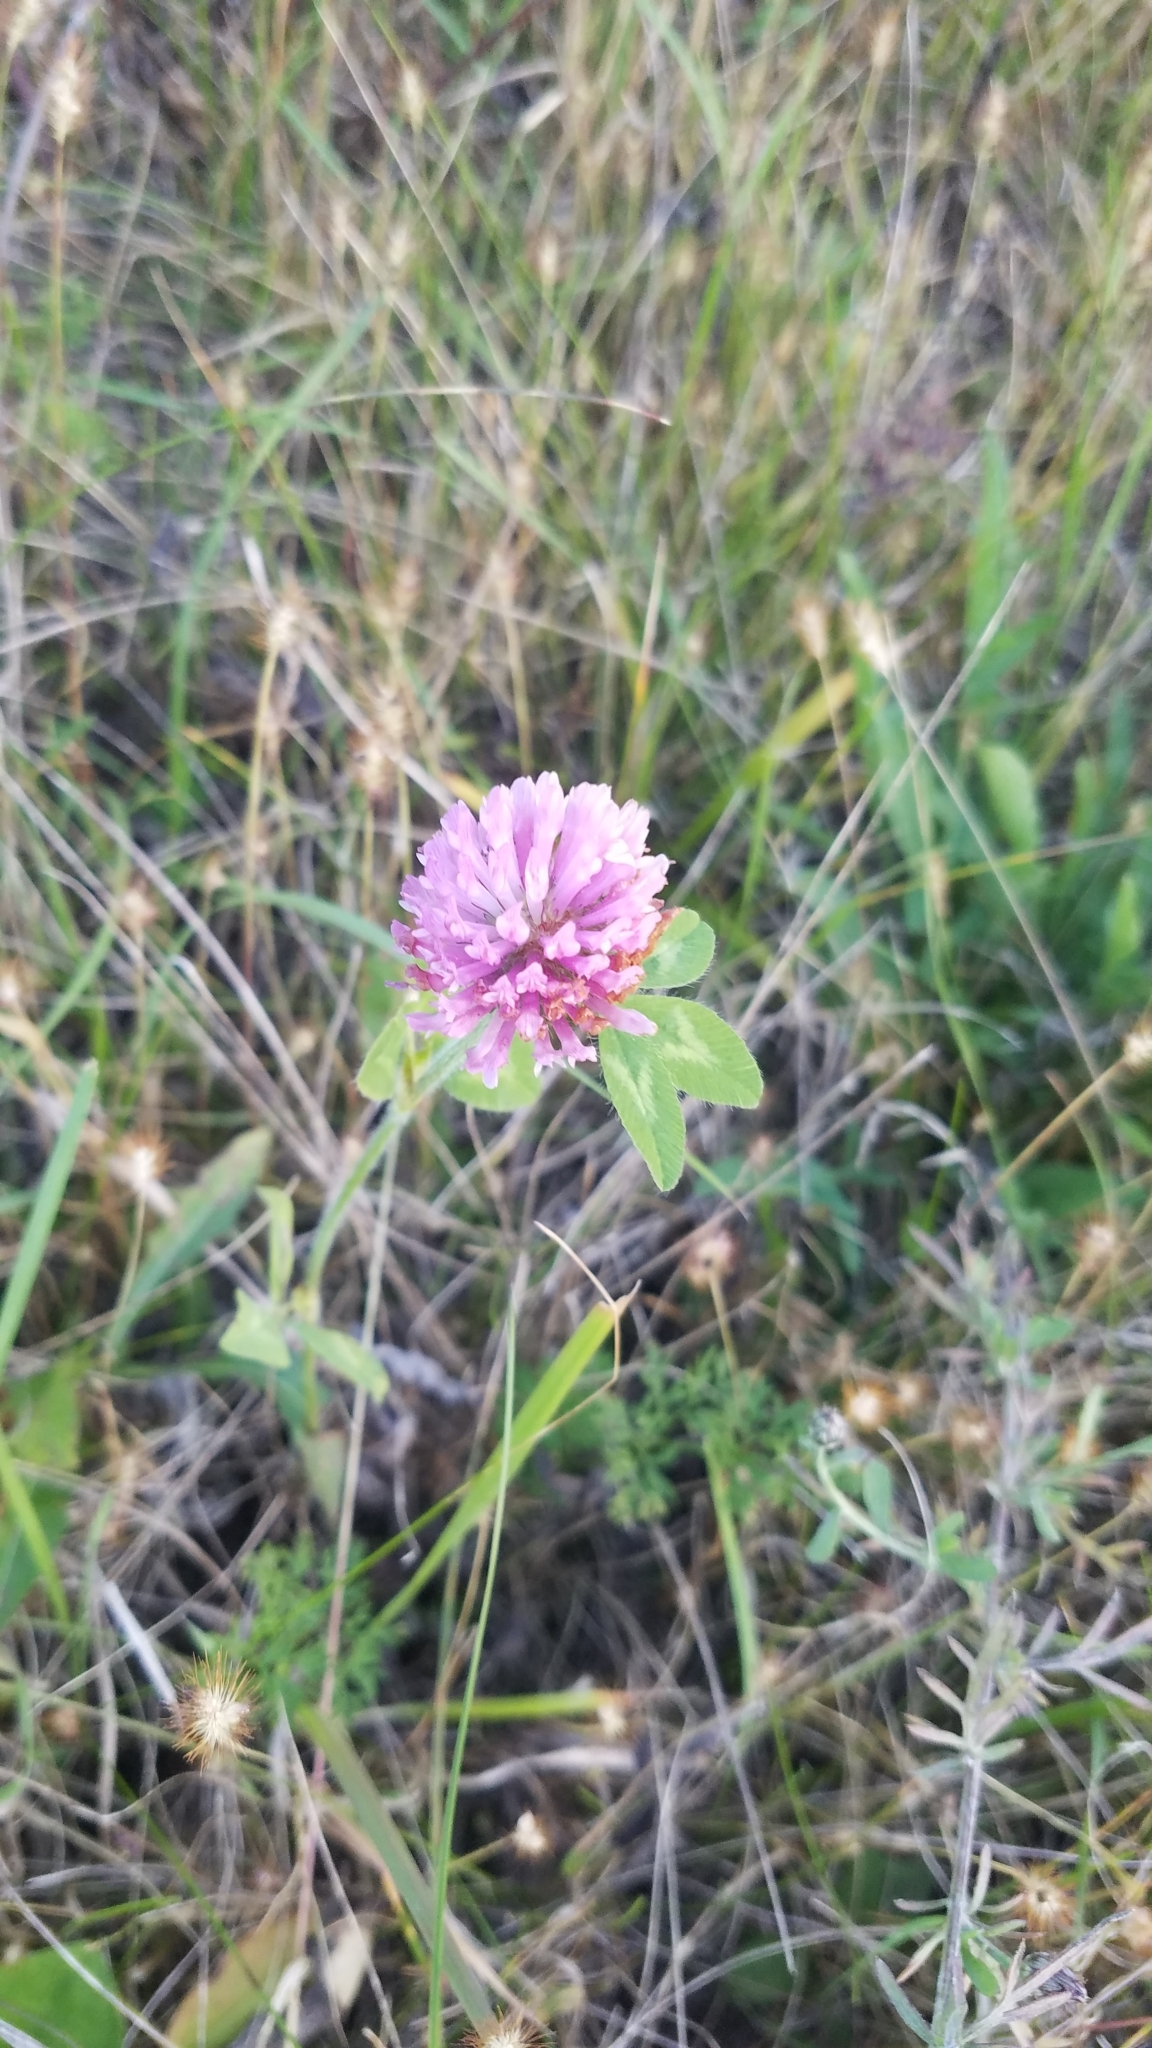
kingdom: Plantae
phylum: Tracheophyta
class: Magnoliopsida
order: Fabales
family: Fabaceae
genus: Trifolium
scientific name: Trifolium pratense
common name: Red clover
